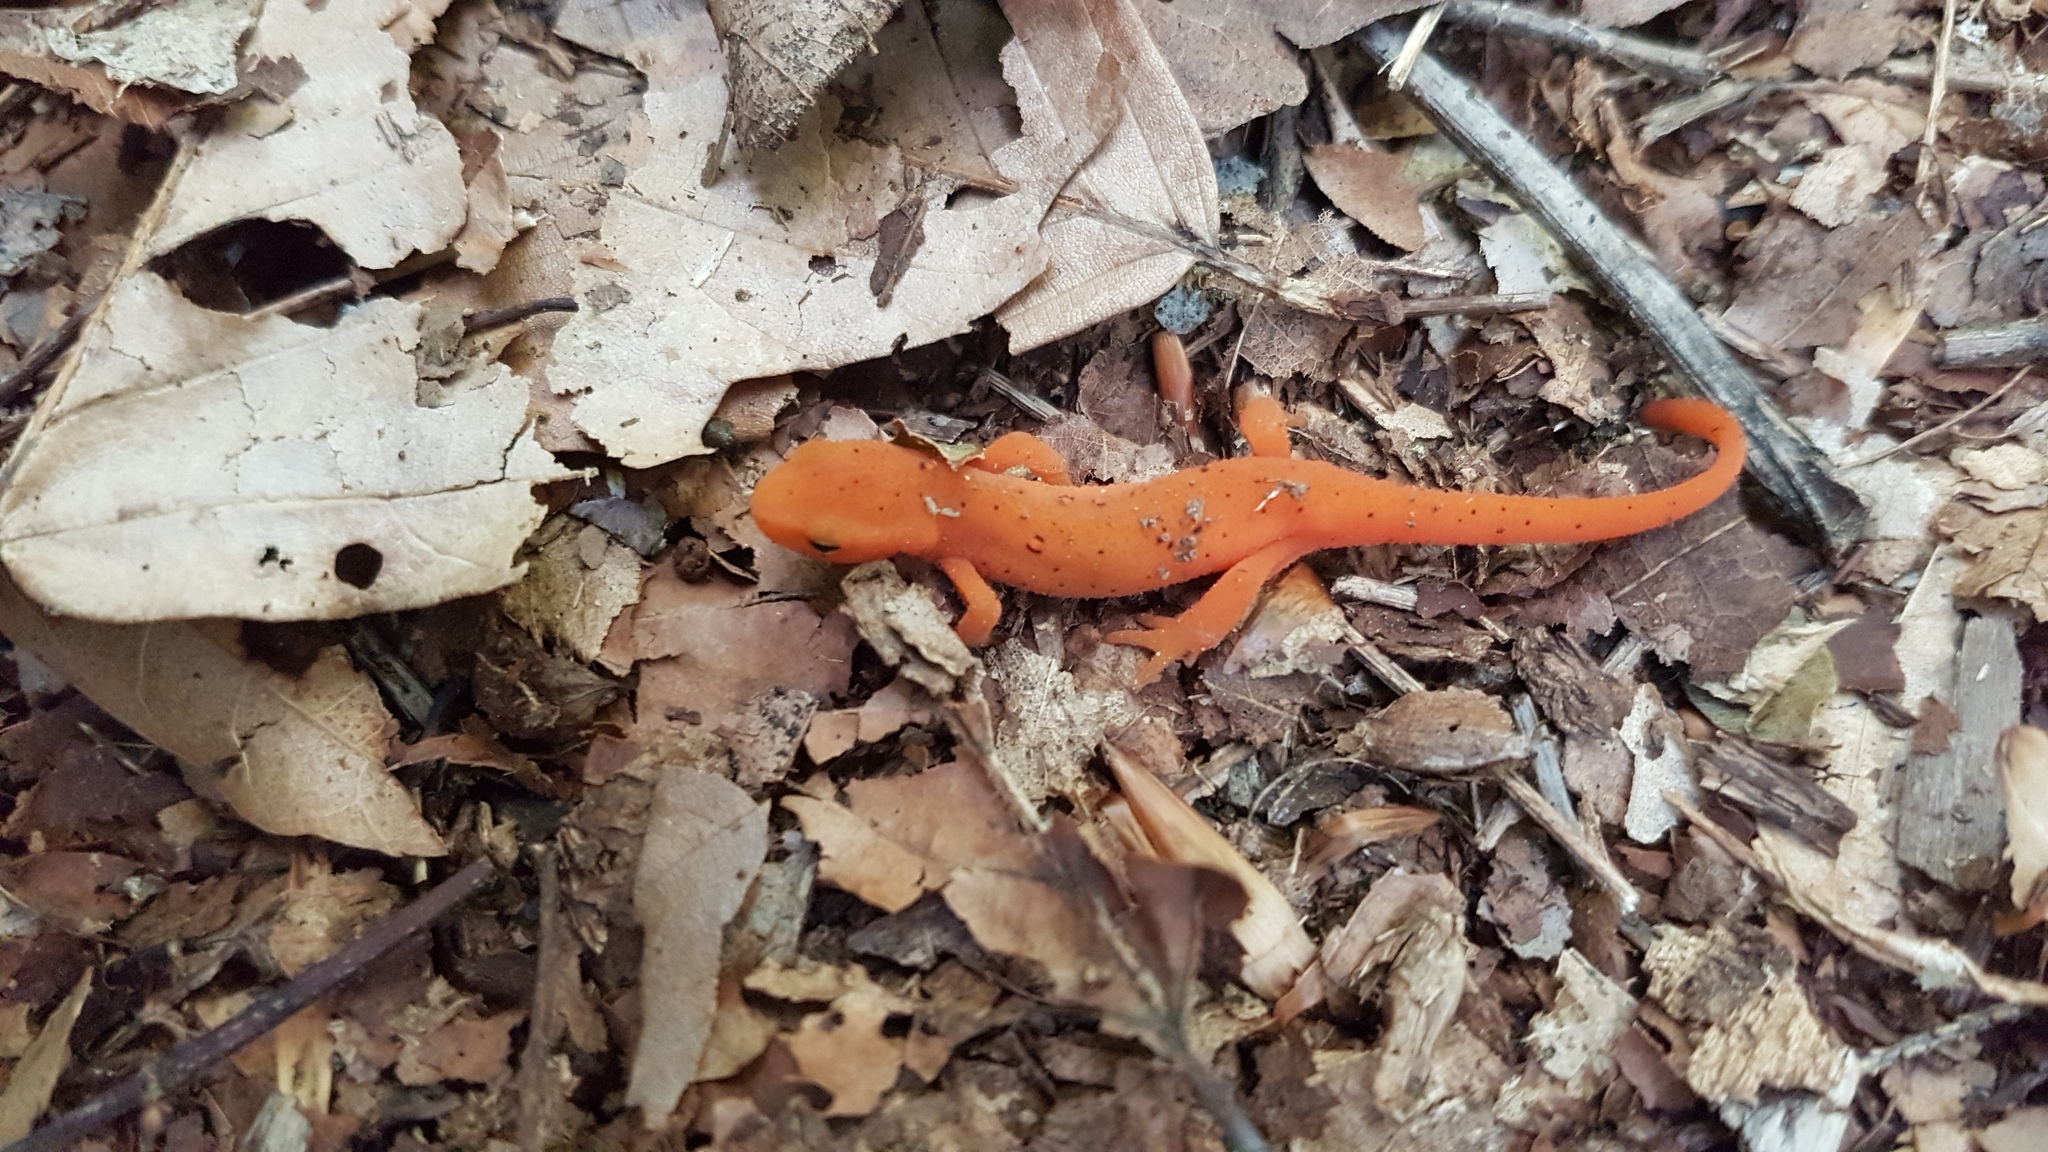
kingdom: Animalia
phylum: Chordata
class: Amphibia
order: Caudata
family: Salamandridae
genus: Notophthalmus
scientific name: Notophthalmus viridescens
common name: Eastern newt
